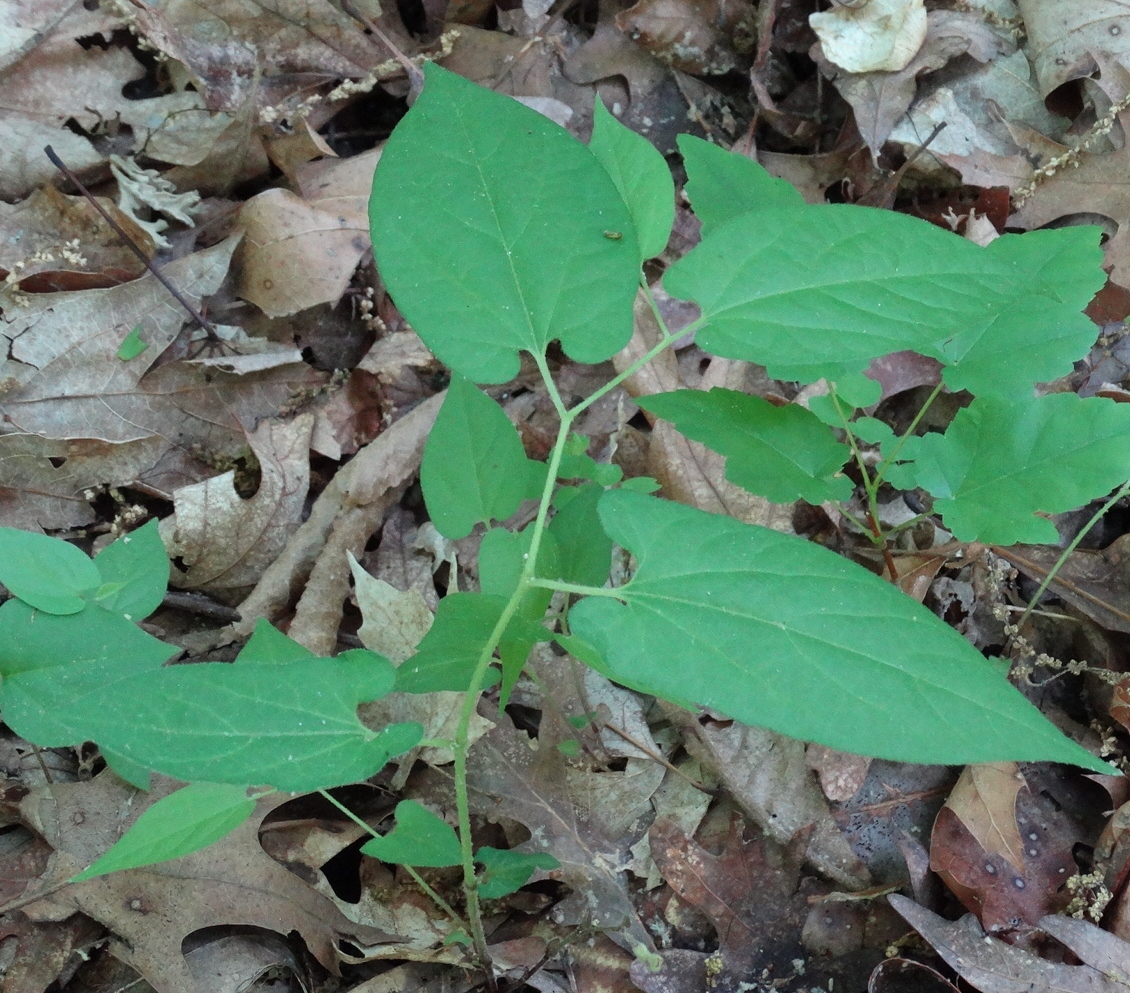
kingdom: Plantae
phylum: Tracheophyta
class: Magnoliopsida
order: Piperales
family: Aristolochiaceae
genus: Endodeca
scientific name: Endodeca serpentaria
